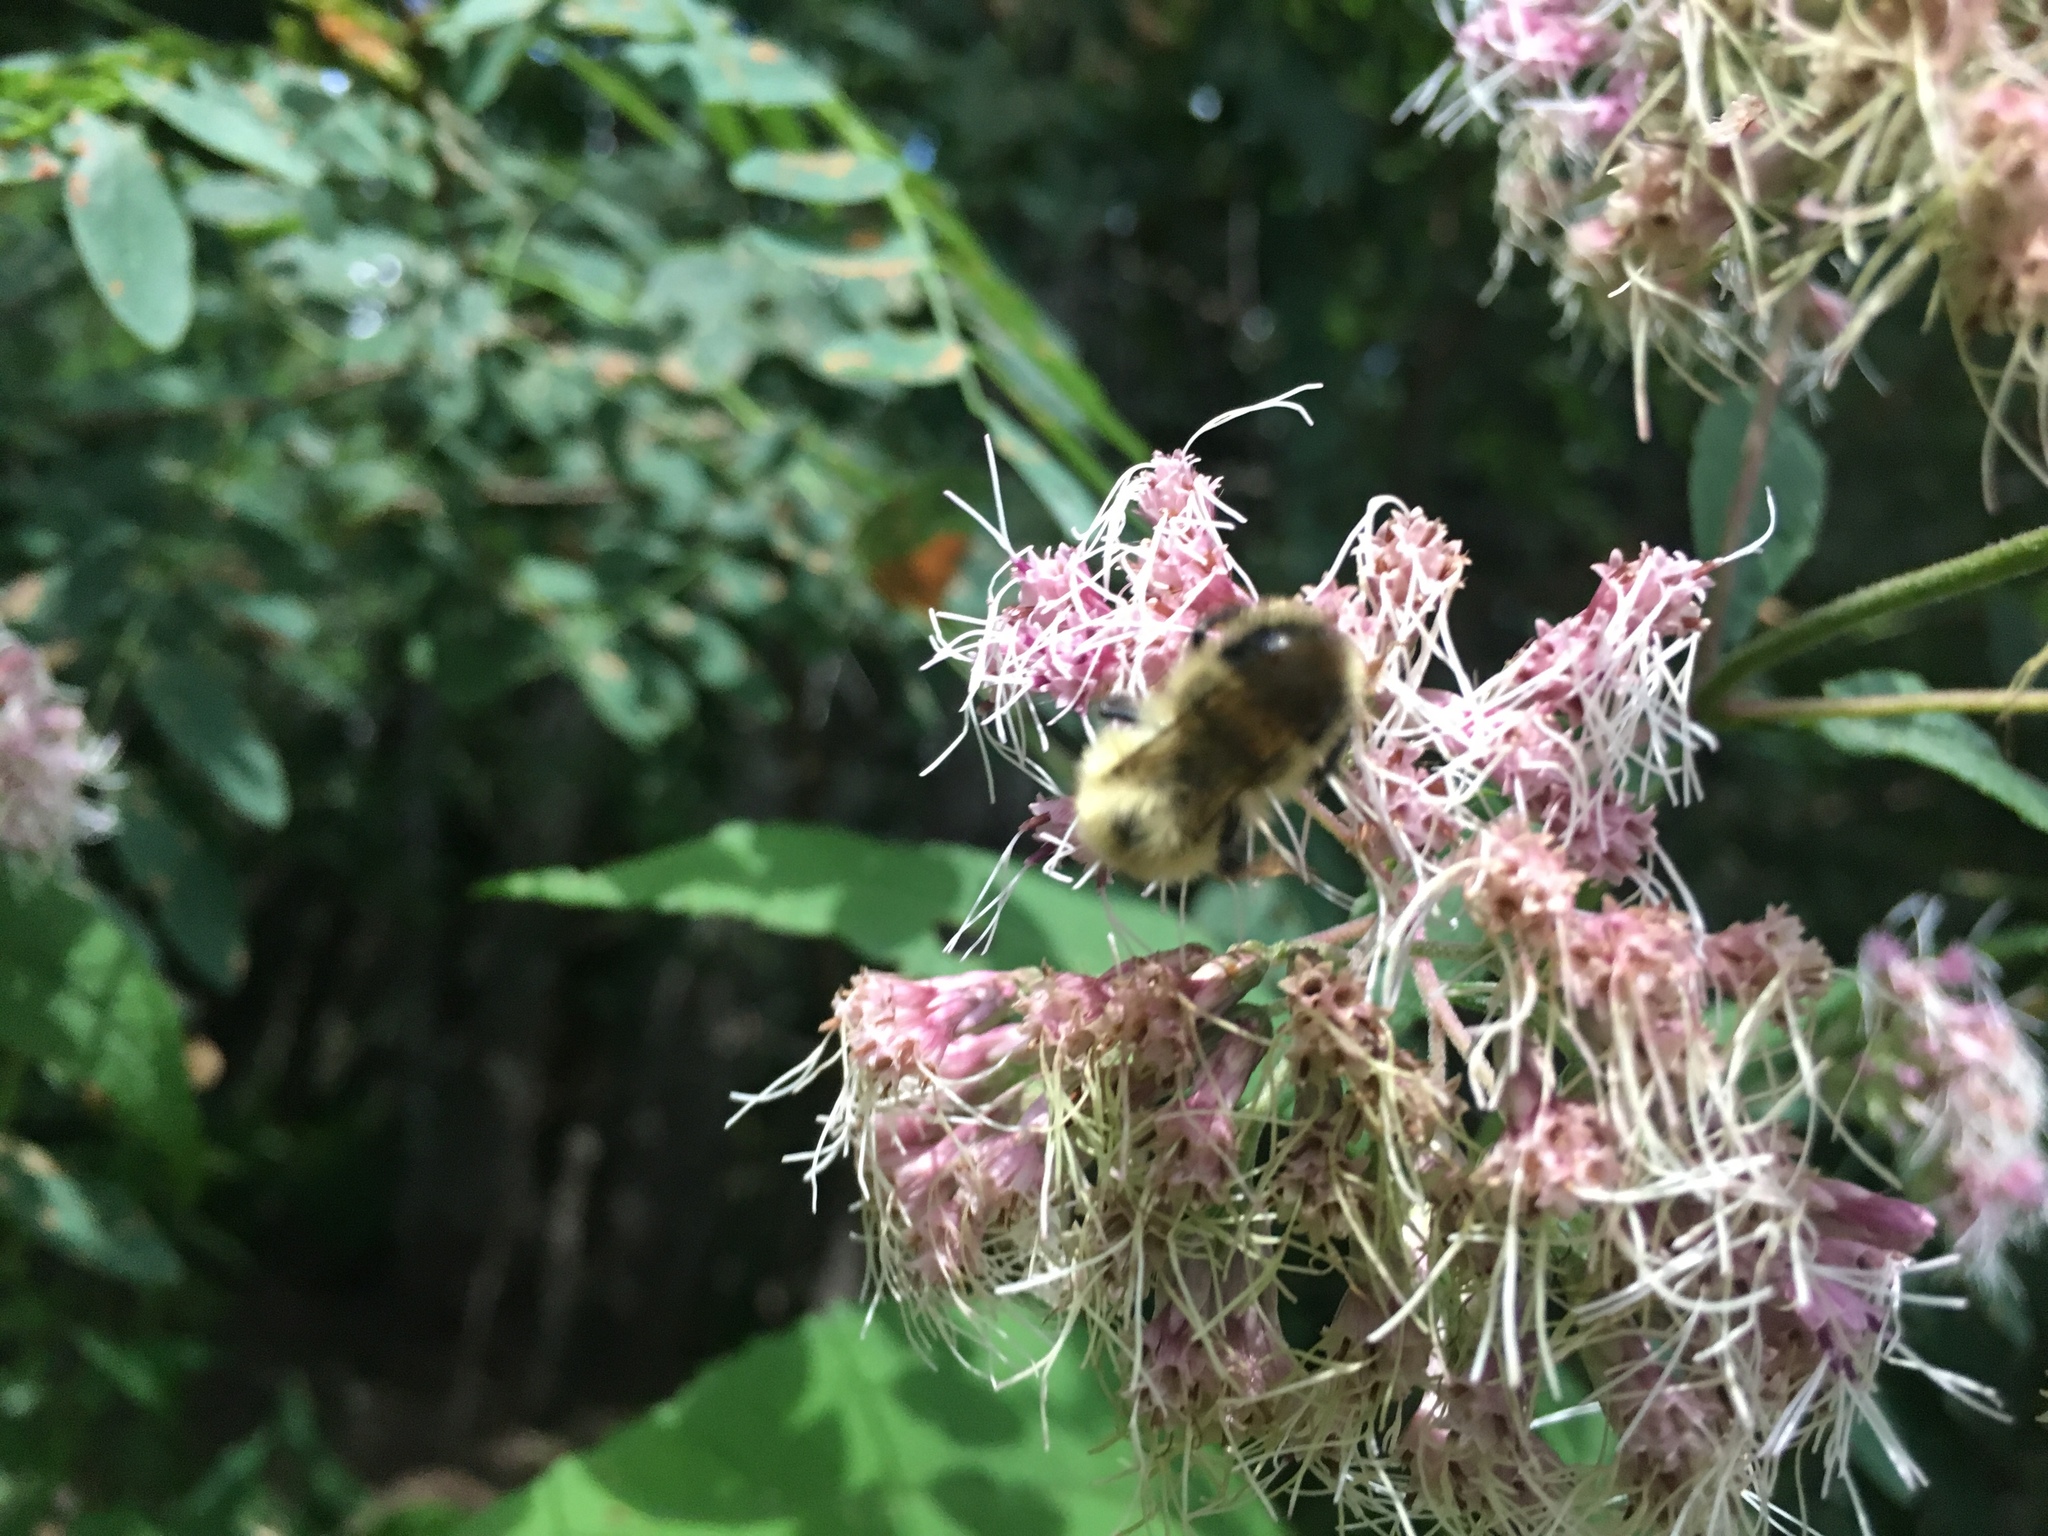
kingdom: Animalia
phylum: Arthropoda
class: Insecta
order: Hymenoptera
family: Apidae
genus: Pyrobombus
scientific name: Pyrobombus
